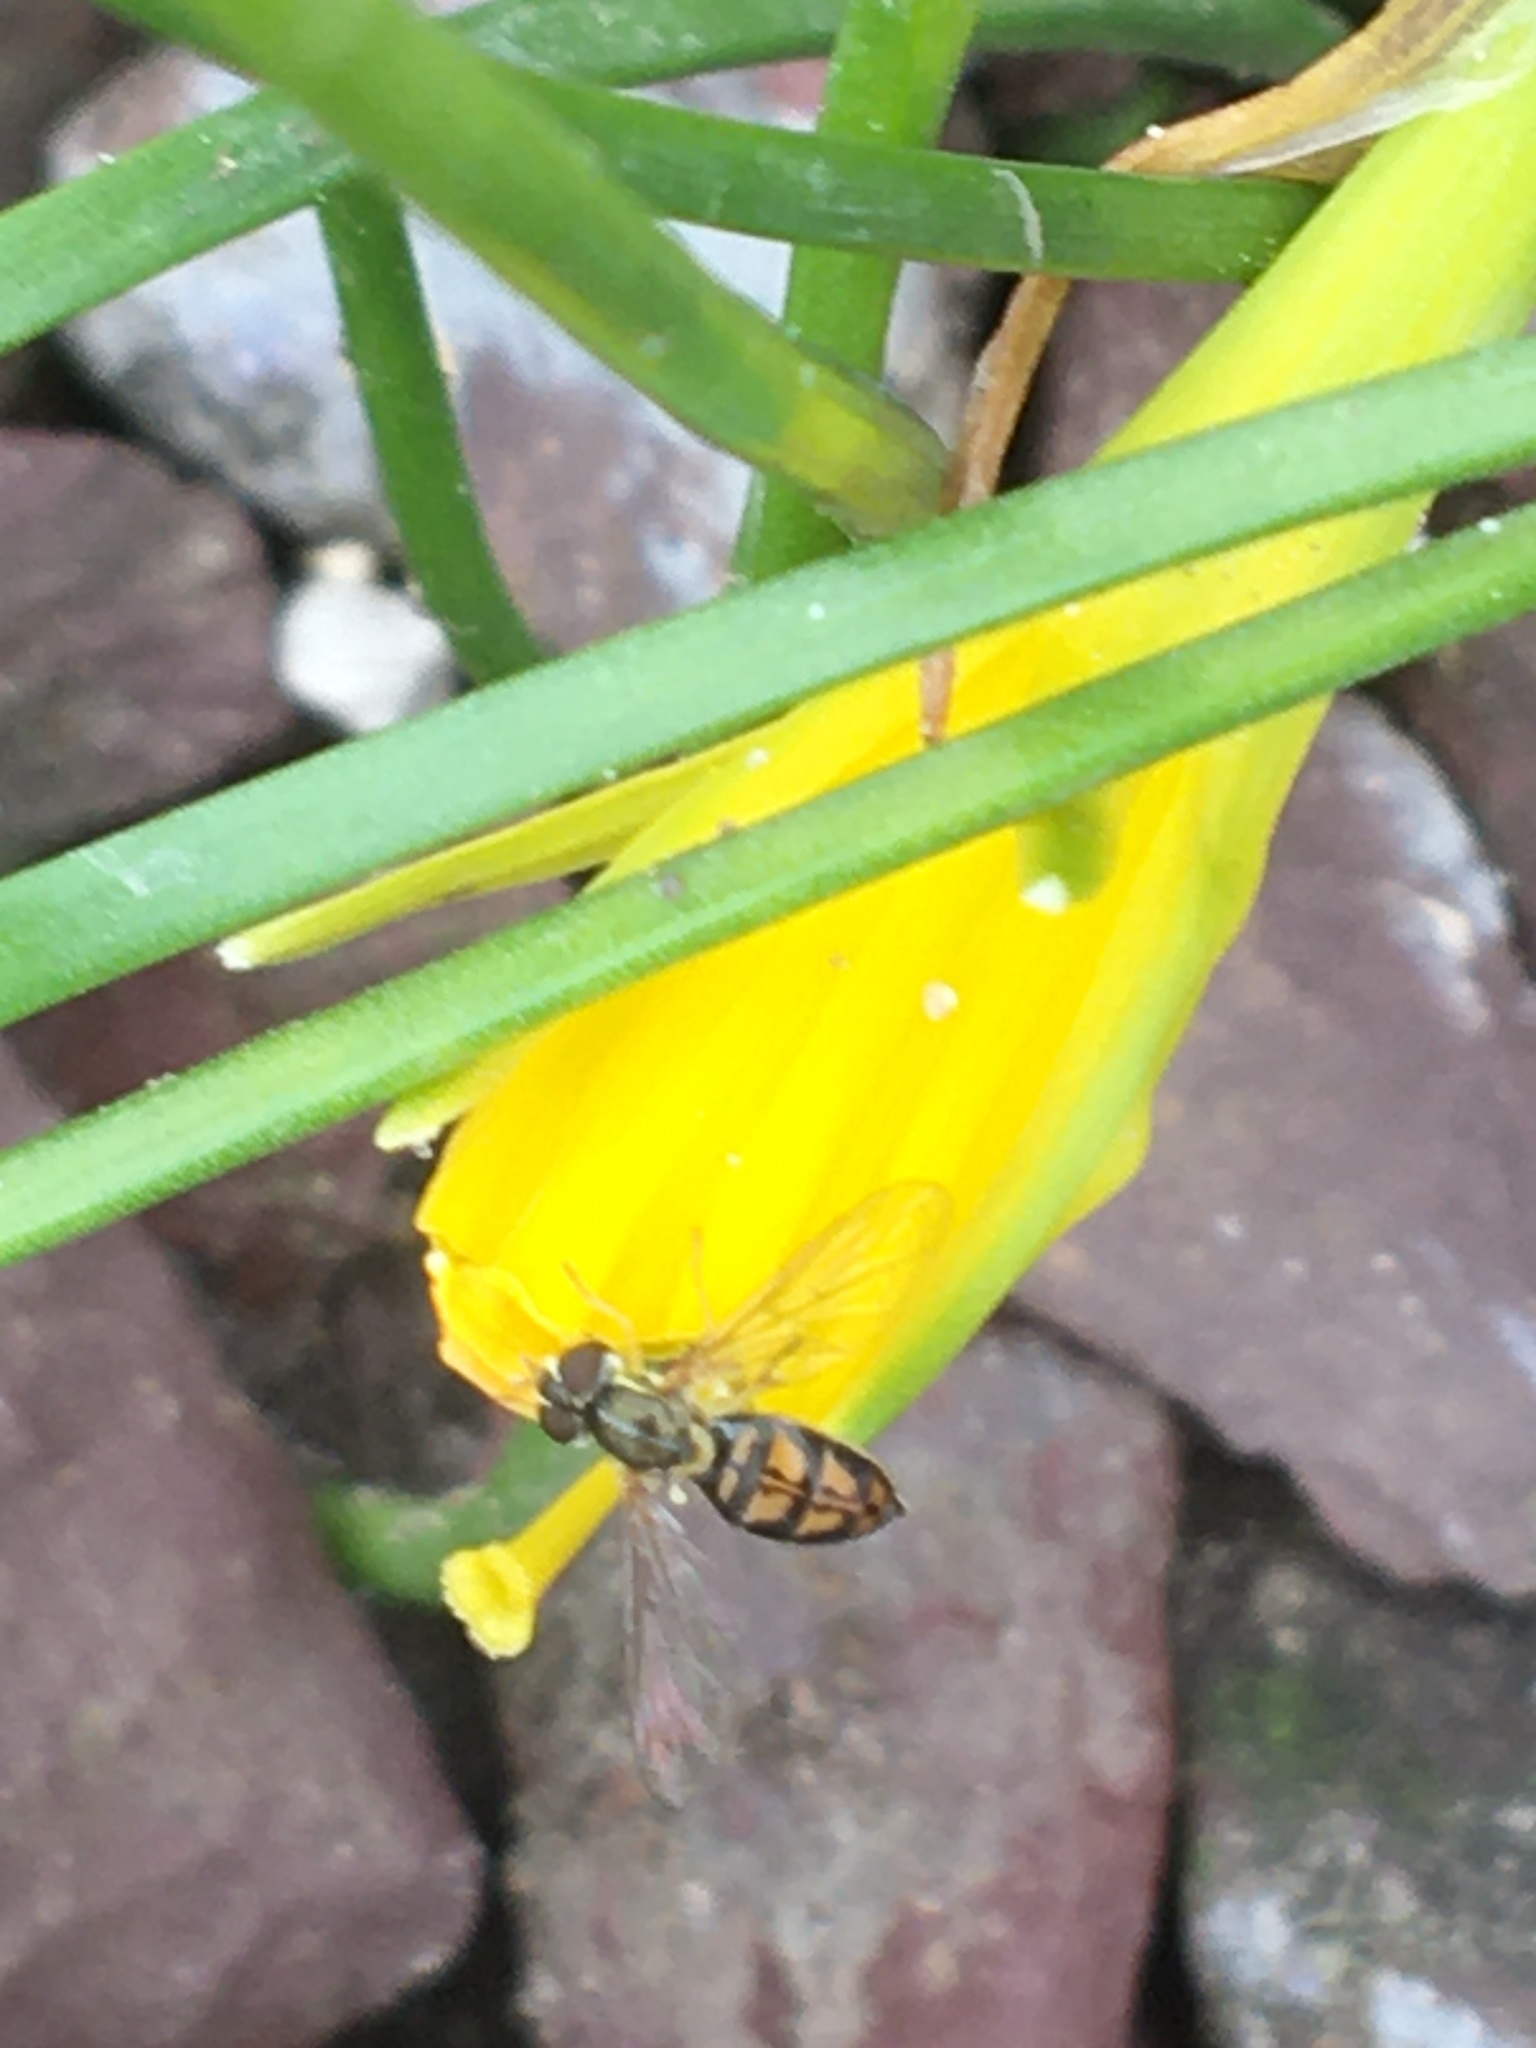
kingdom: Animalia
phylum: Arthropoda
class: Insecta
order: Diptera
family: Syrphidae
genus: Toxomerus
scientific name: Toxomerus marginatus
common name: Syrphid fly
